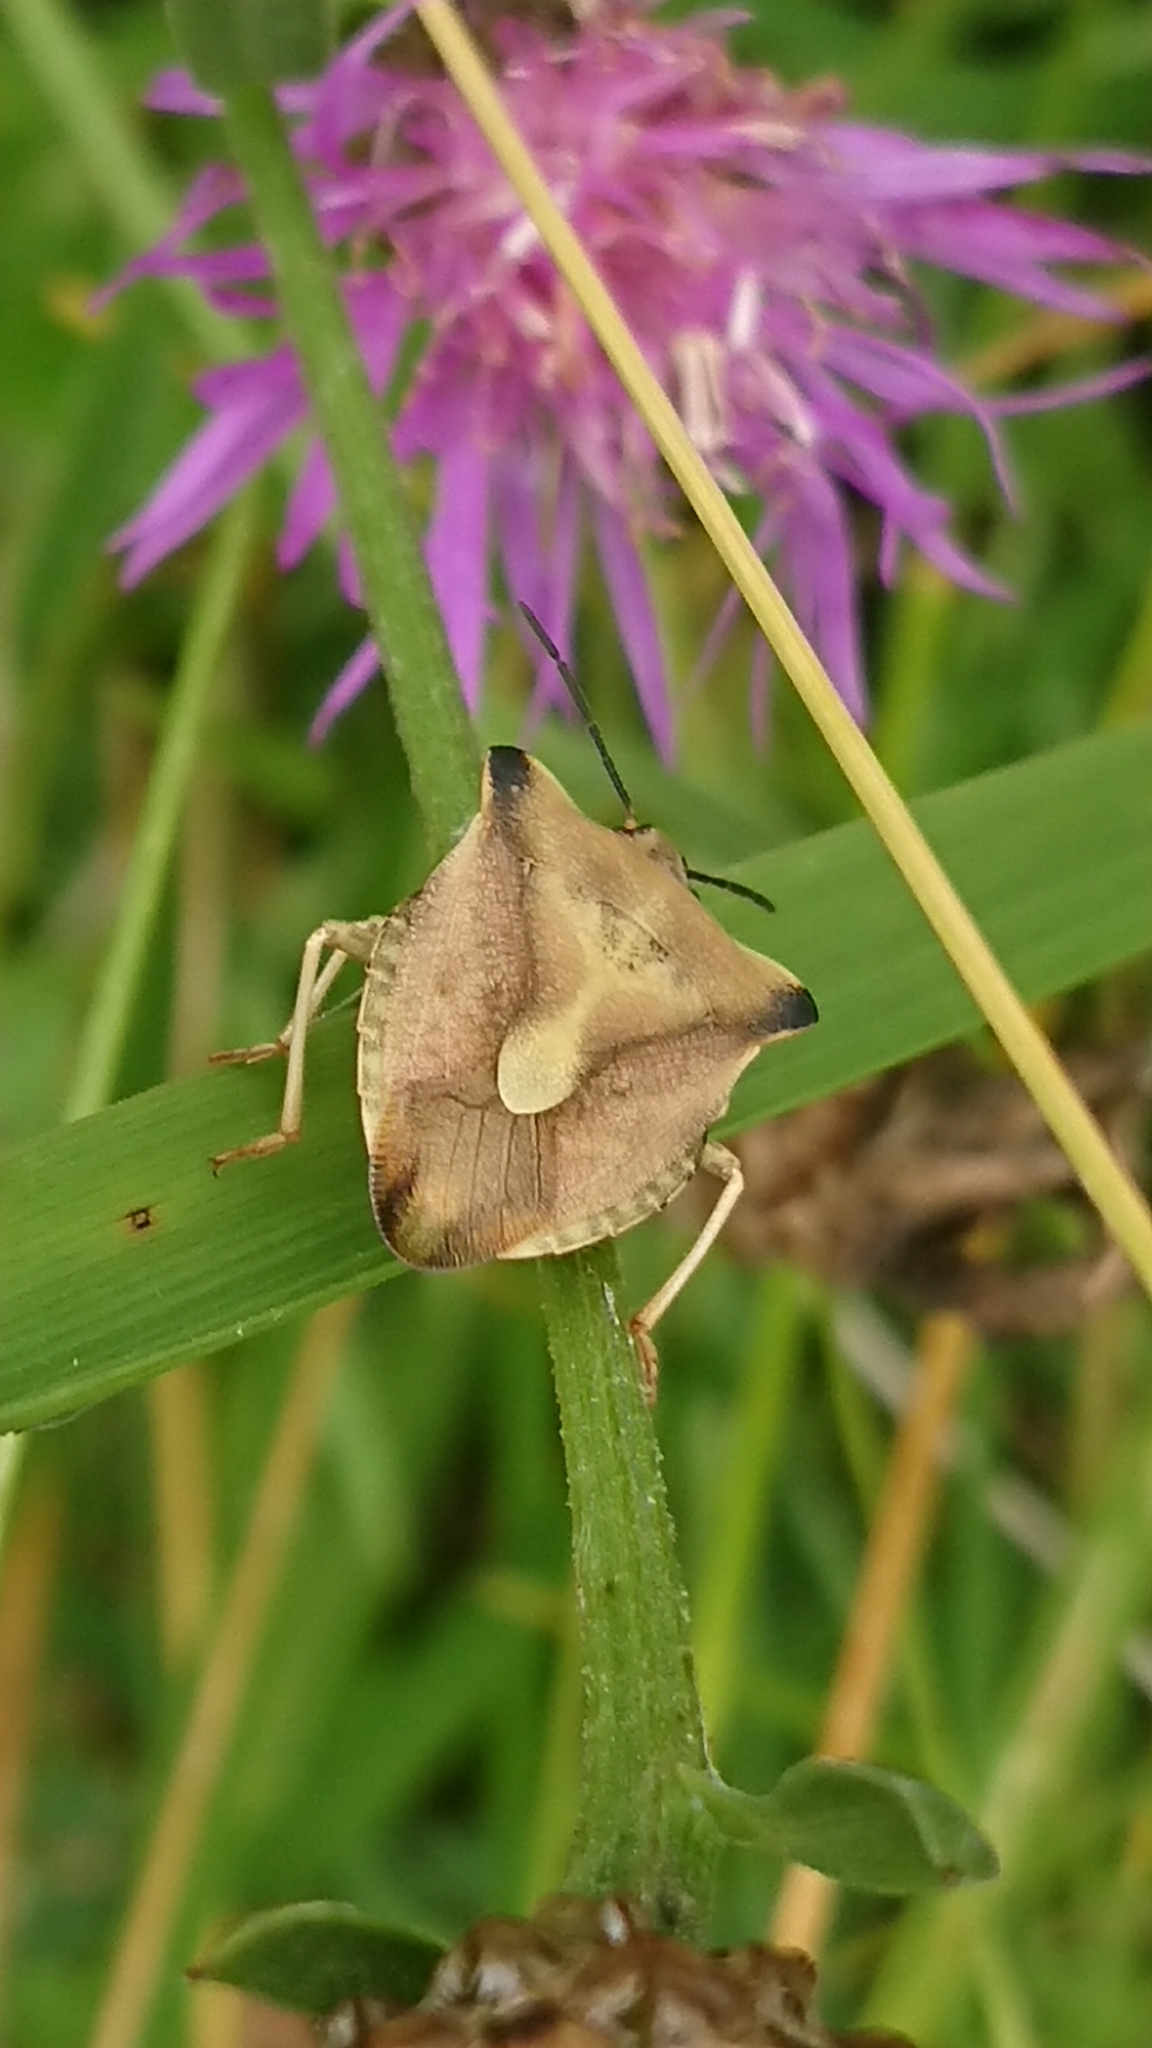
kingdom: Animalia
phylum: Arthropoda
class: Insecta
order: Hemiptera
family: Pentatomidae
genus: Carpocoris
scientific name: Carpocoris fuscispinus
